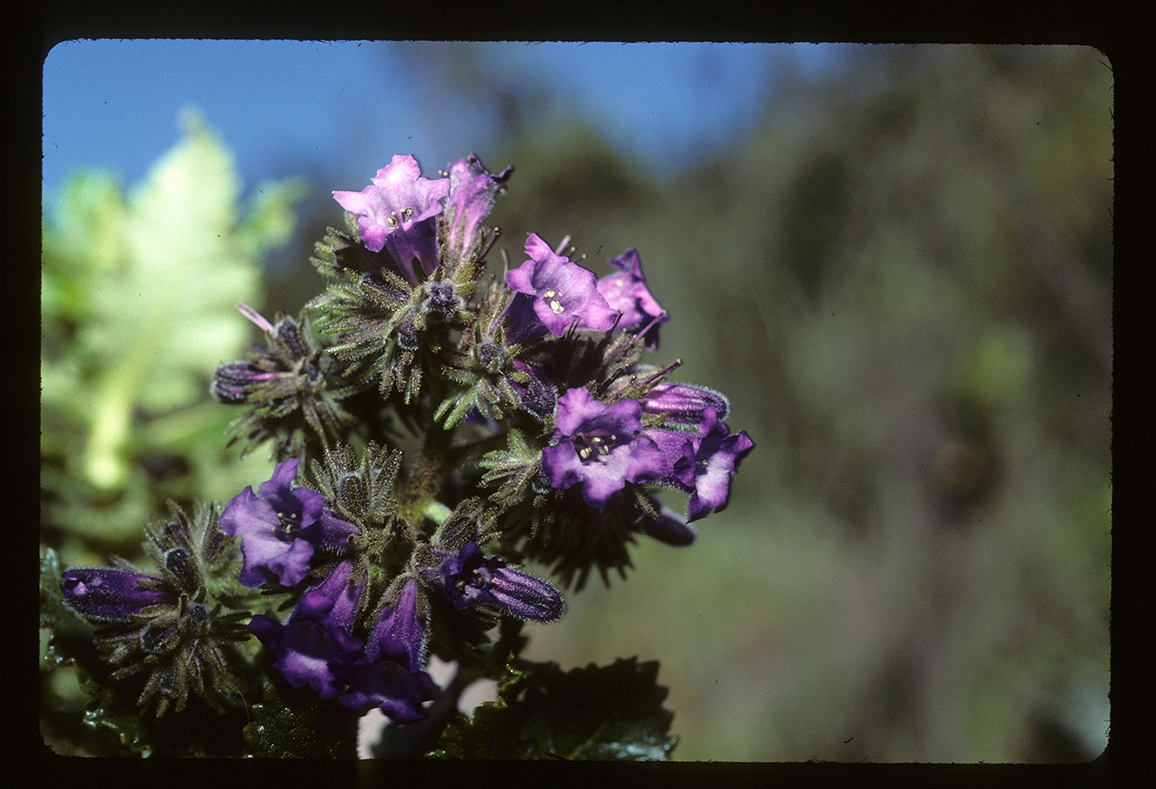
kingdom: Plantae
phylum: Tracheophyta
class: Magnoliopsida
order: Boraginales
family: Namaceae
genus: Eriodictyon
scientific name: Eriodictyon sessilifolium
